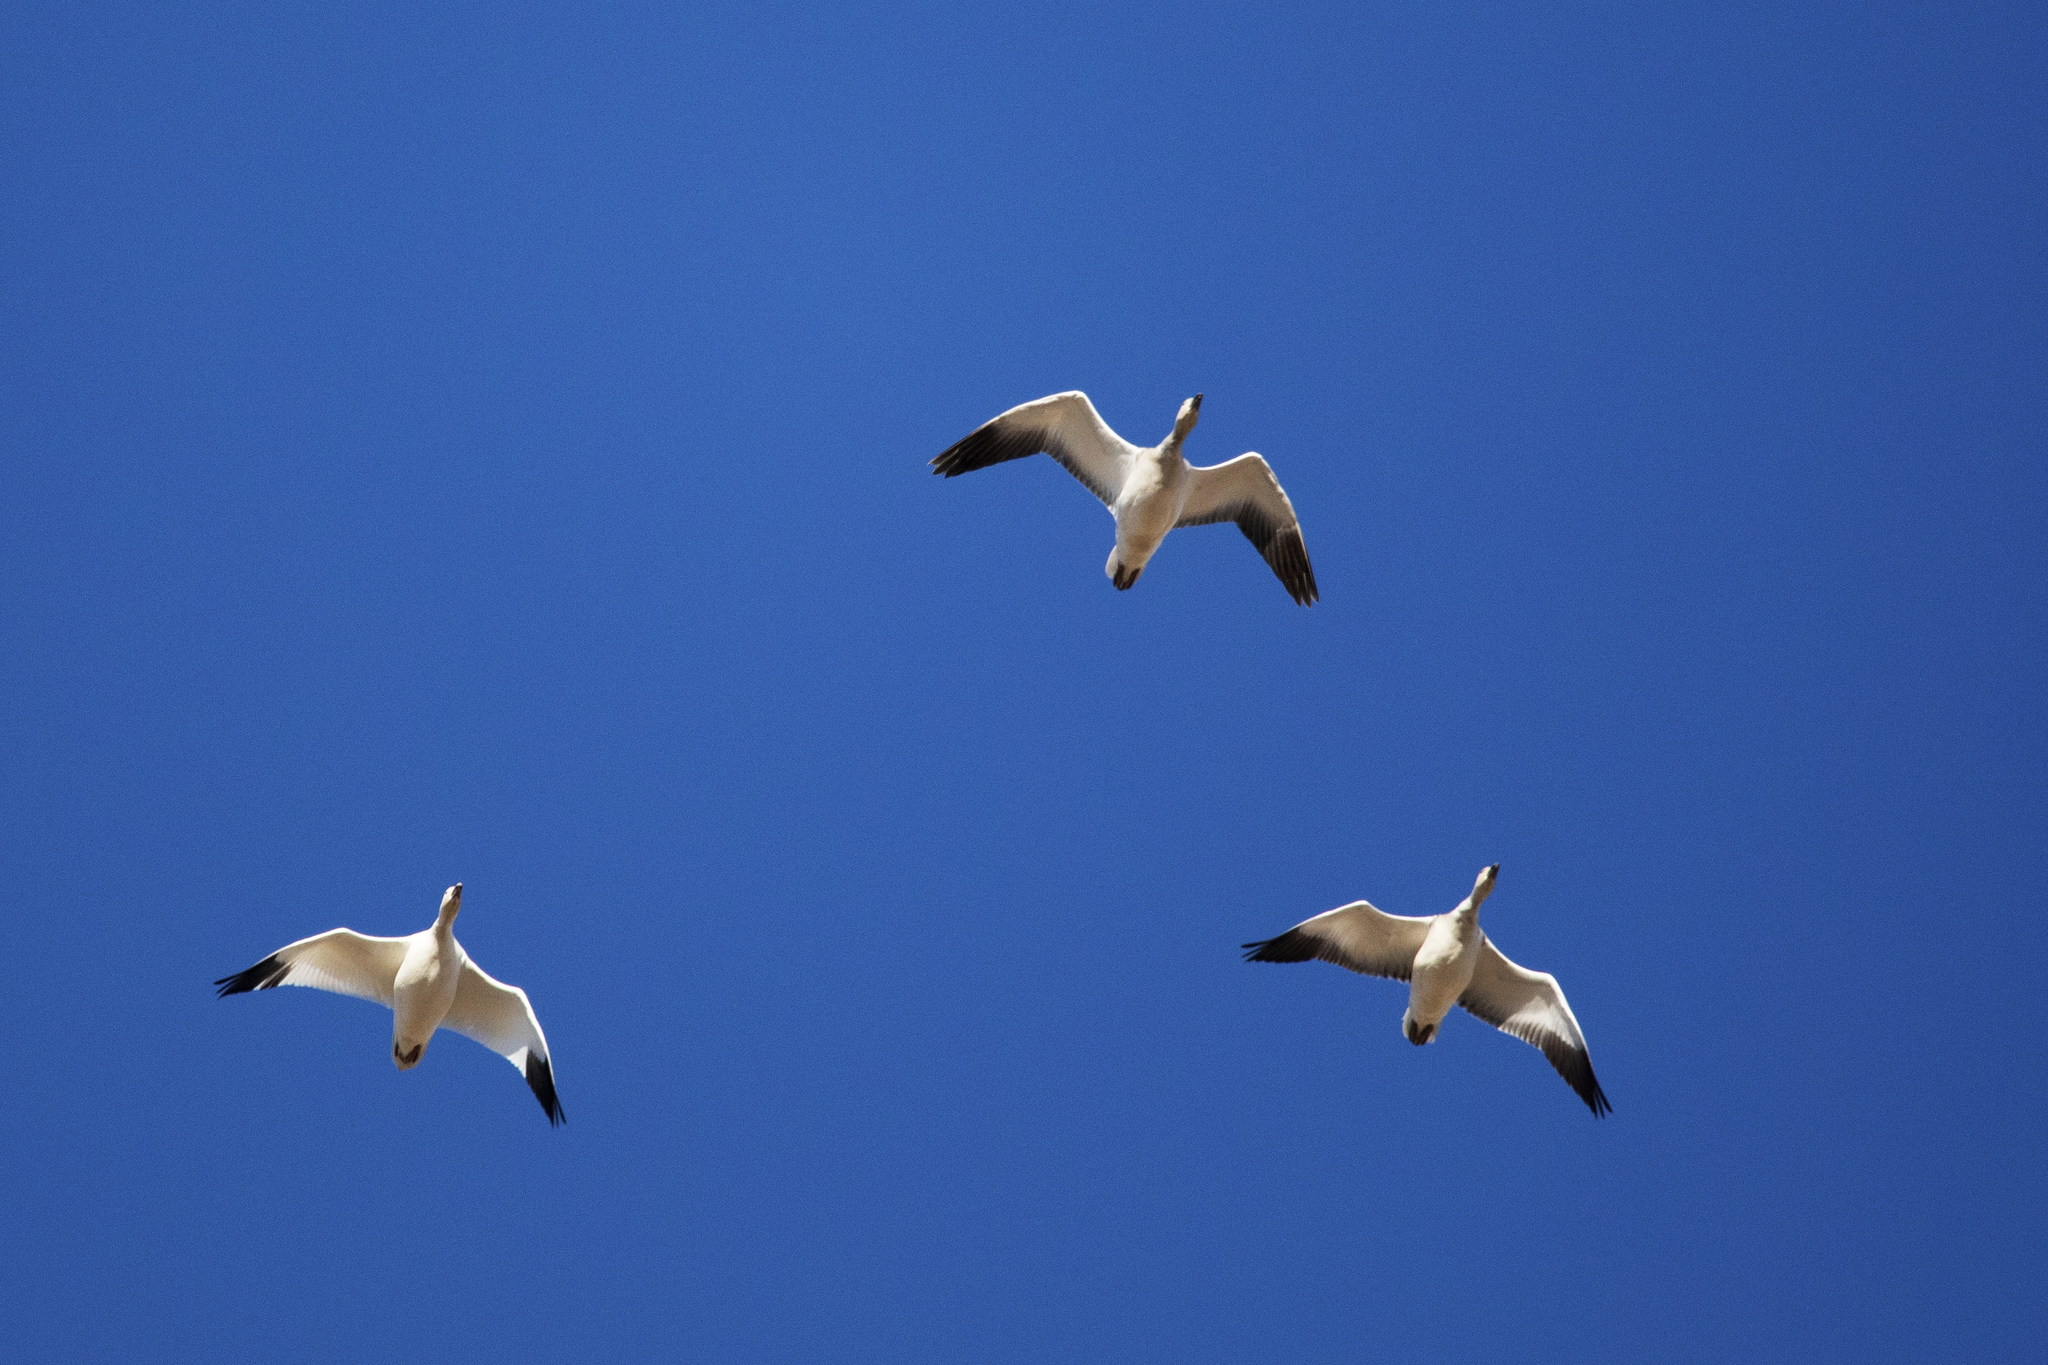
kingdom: Animalia
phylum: Chordata
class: Aves
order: Anseriformes
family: Anatidae
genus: Anser
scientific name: Anser caerulescens
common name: Snow goose
